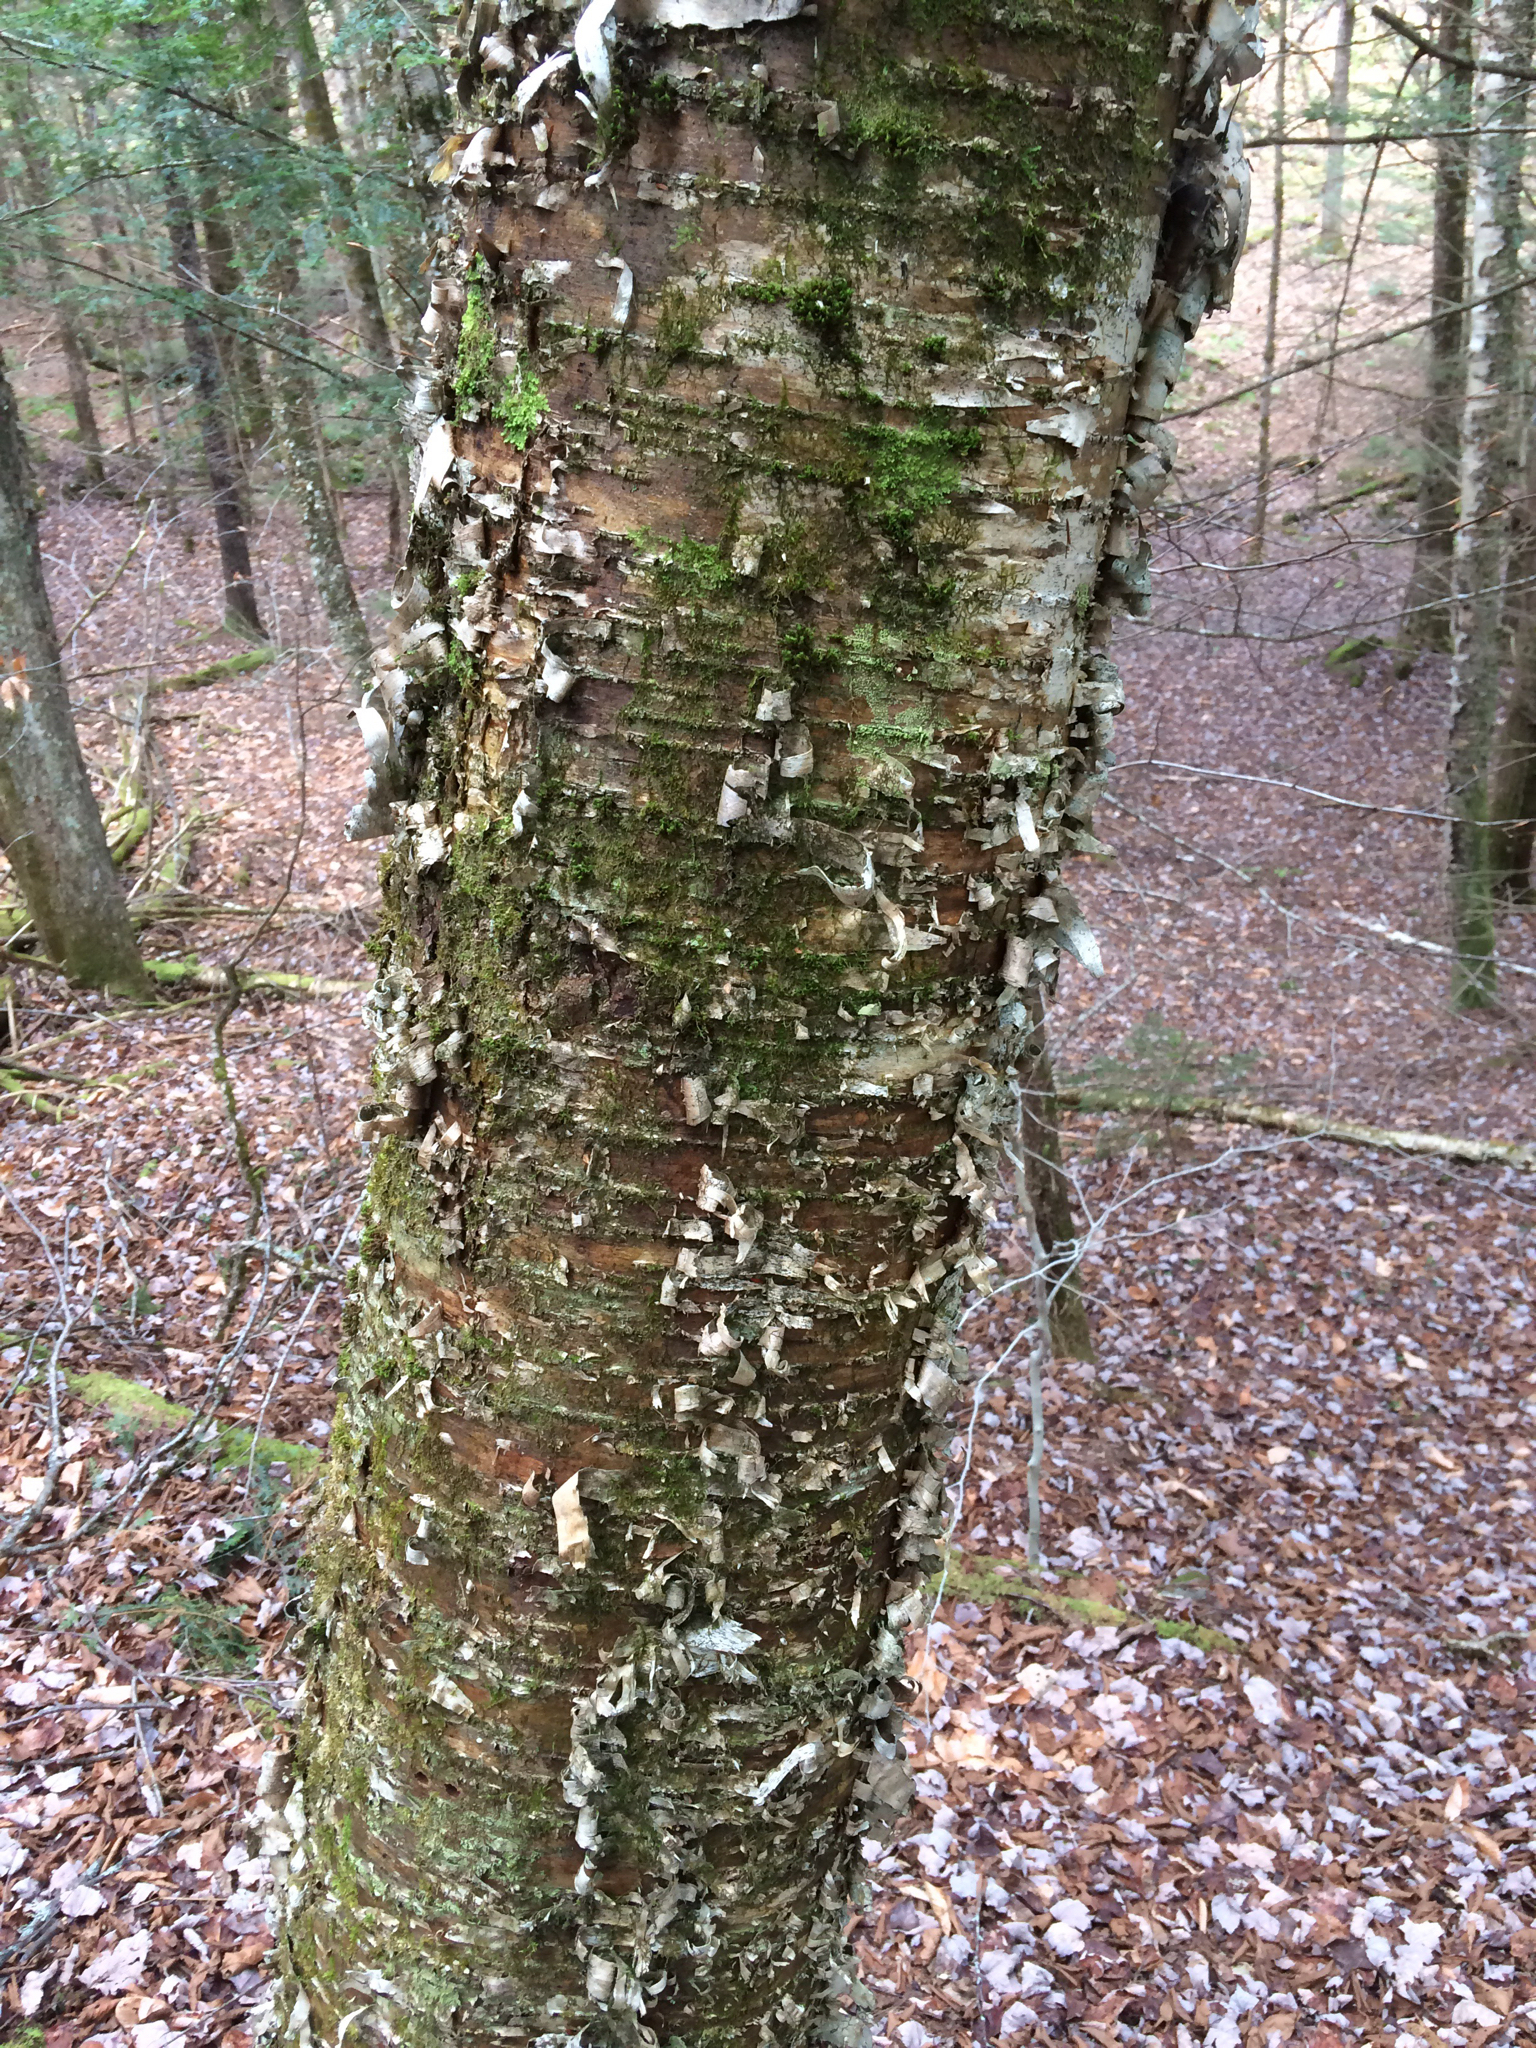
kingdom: Plantae
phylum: Tracheophyta
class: Magnoliopsida
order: Fagales
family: Betulaceae
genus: Betula
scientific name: Betula alleghaniensis
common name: Yellow birch
